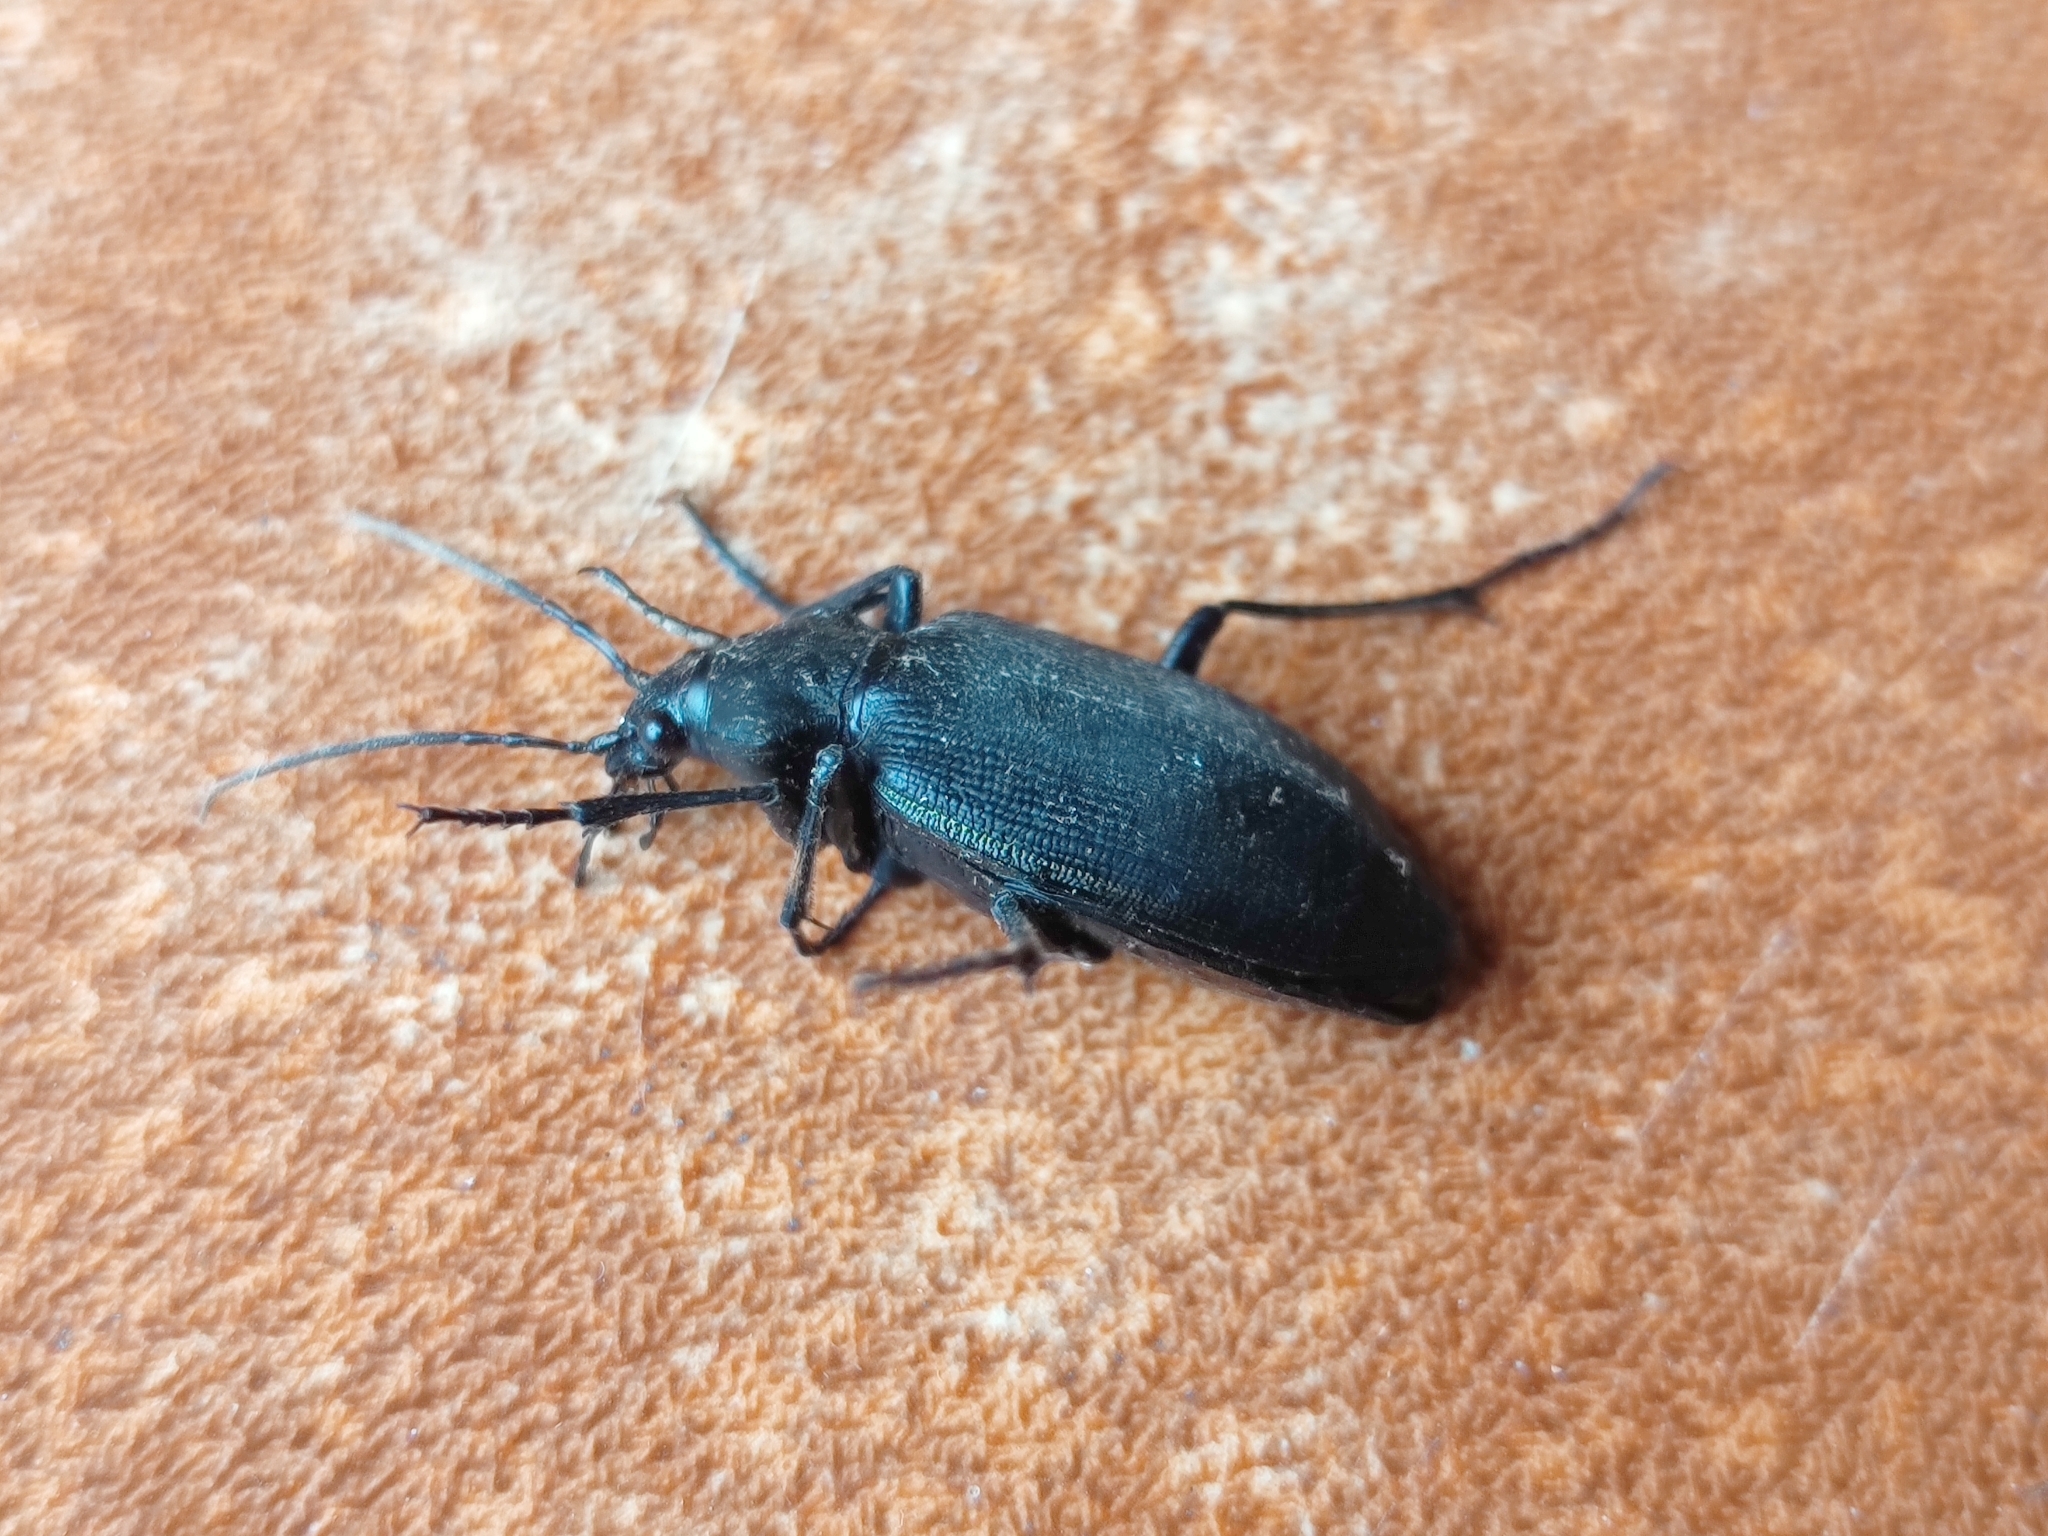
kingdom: Animalia
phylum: Arthropoda
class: Insecta
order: Coleoptera
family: Carabidae
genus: Calosoma
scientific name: Calosoma angulatum
